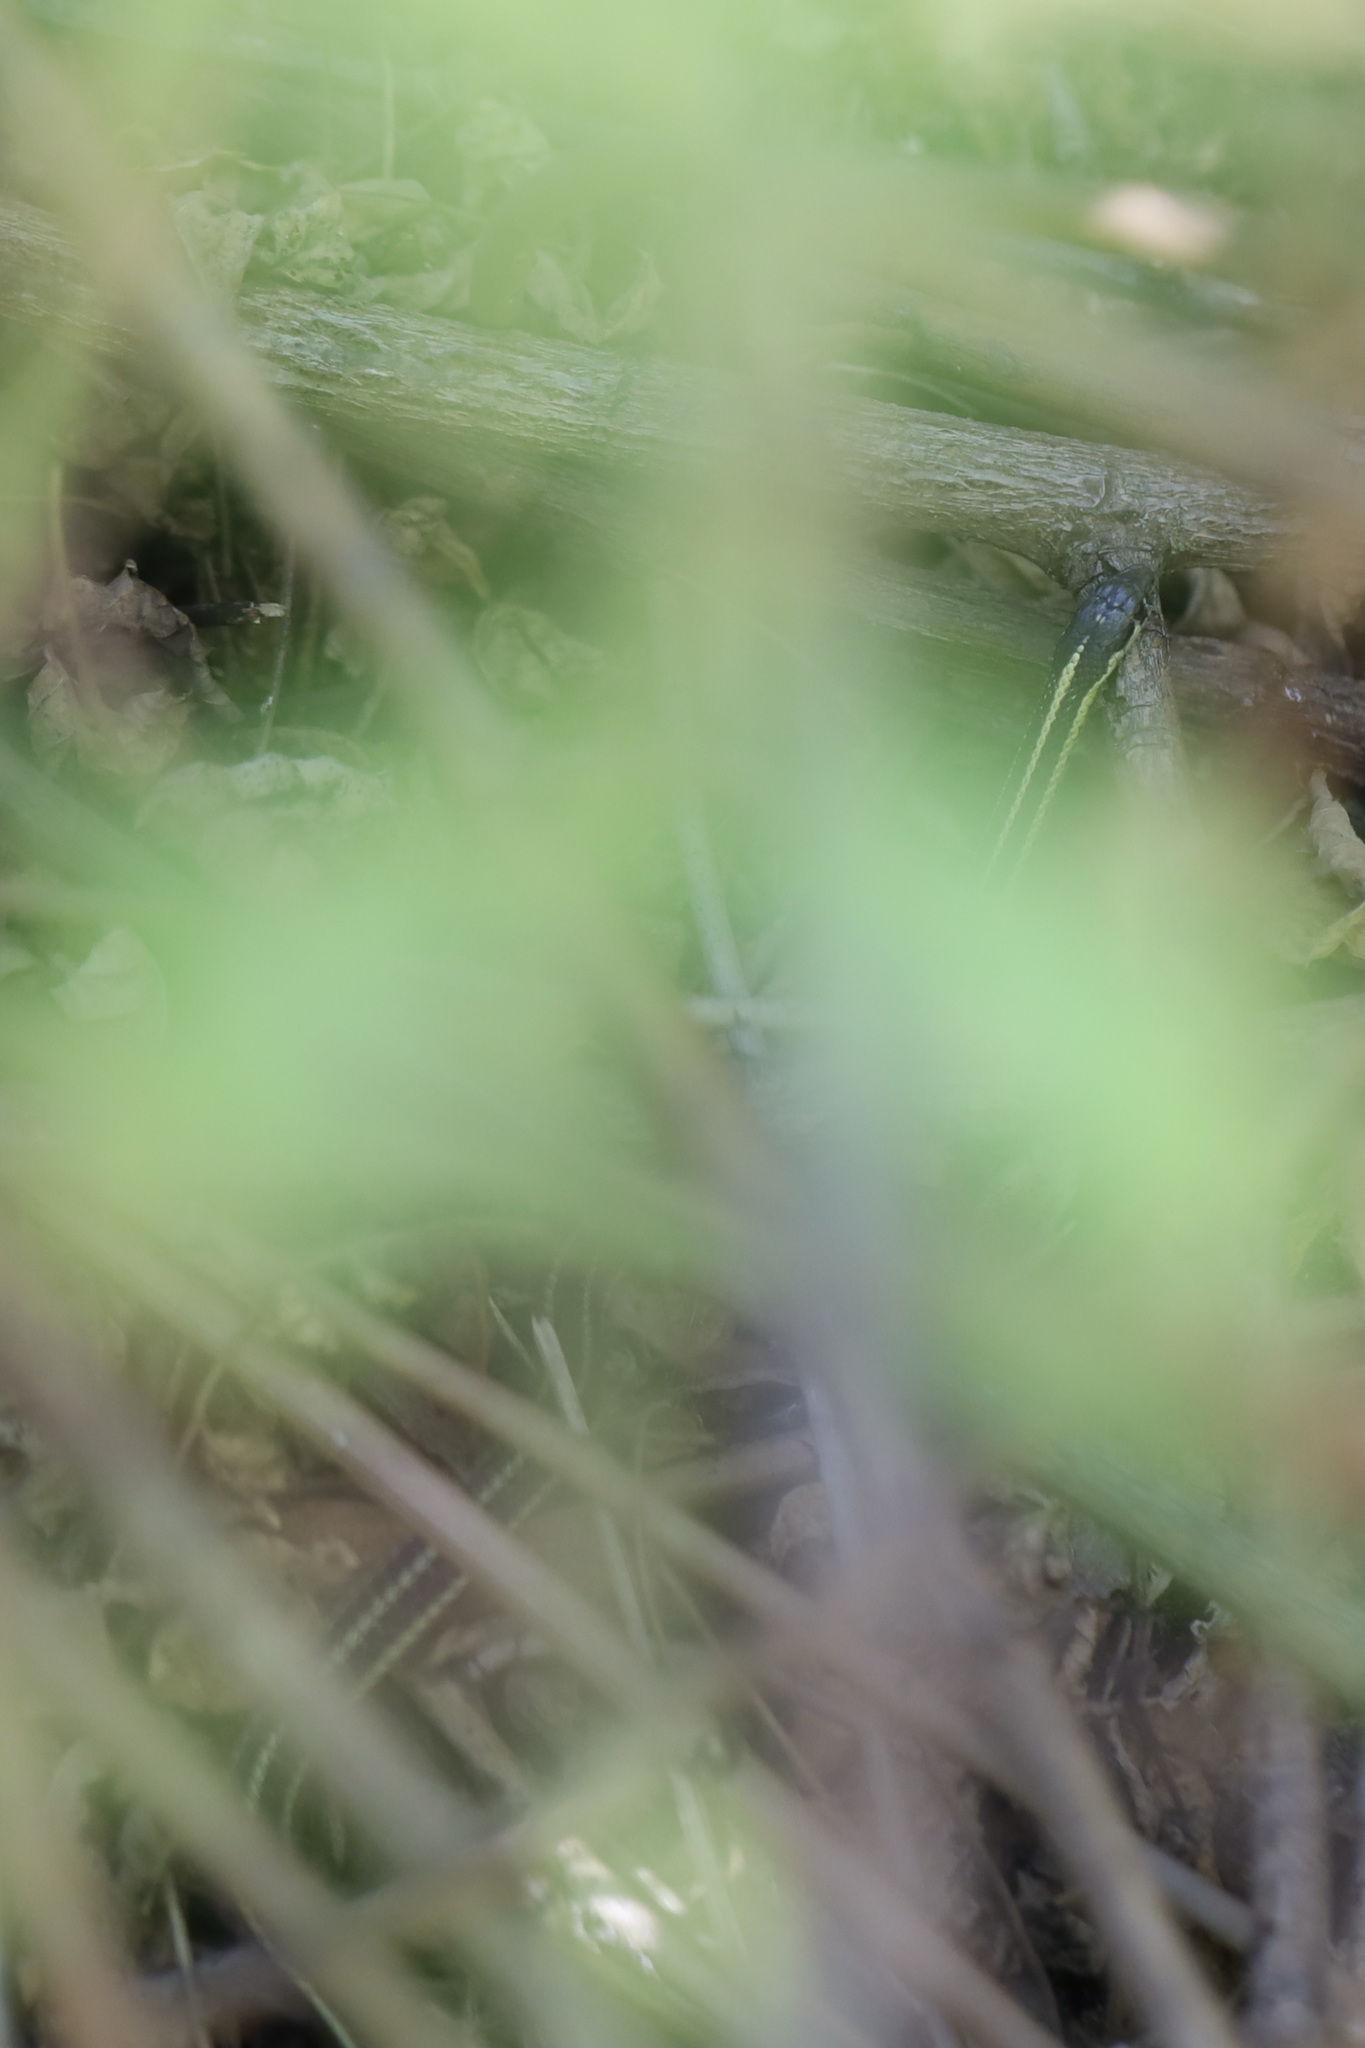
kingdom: Animalia
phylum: Chordata
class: Squamata
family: Colubridae
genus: Thamnophis
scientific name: Thamnophis
